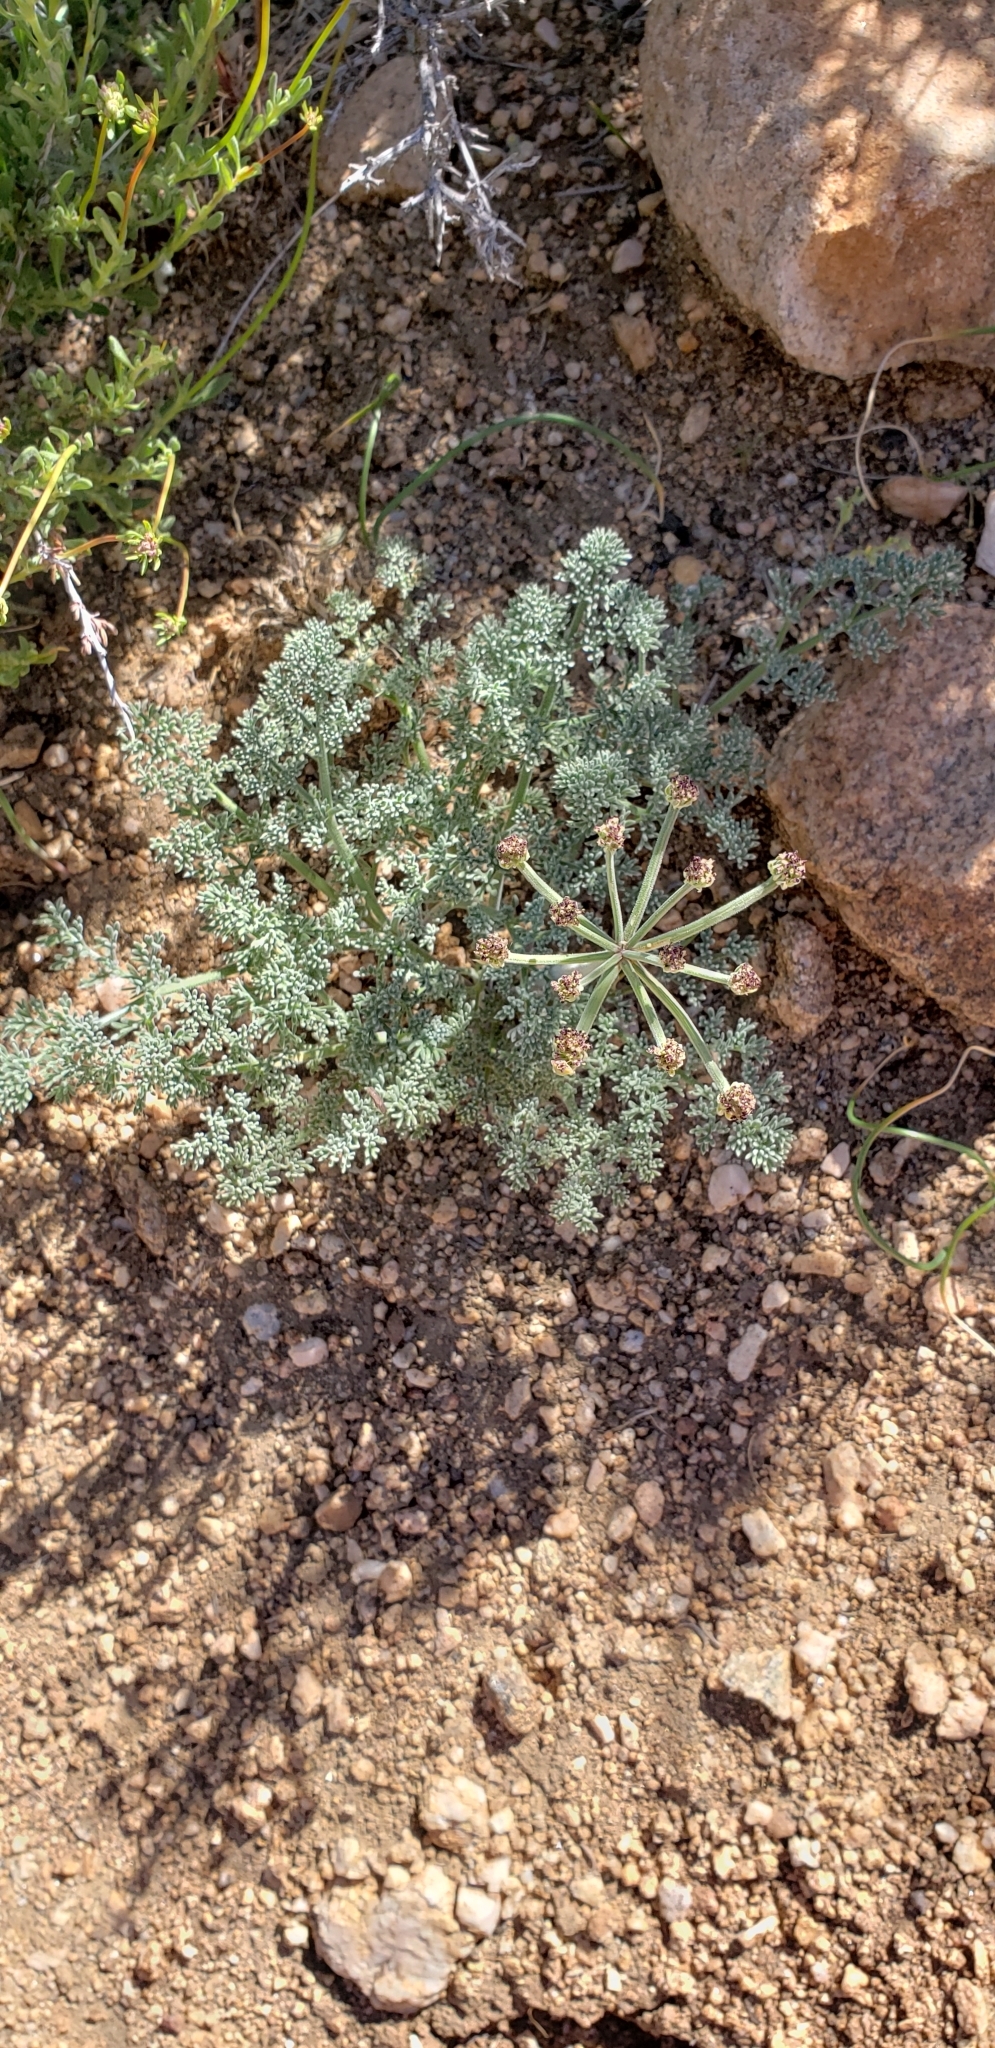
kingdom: Plantae
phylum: Tracheophyta
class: Magnoliopsida
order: Apiales
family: Apiaceae
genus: Lomatium
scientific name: Lomatium mohavense
